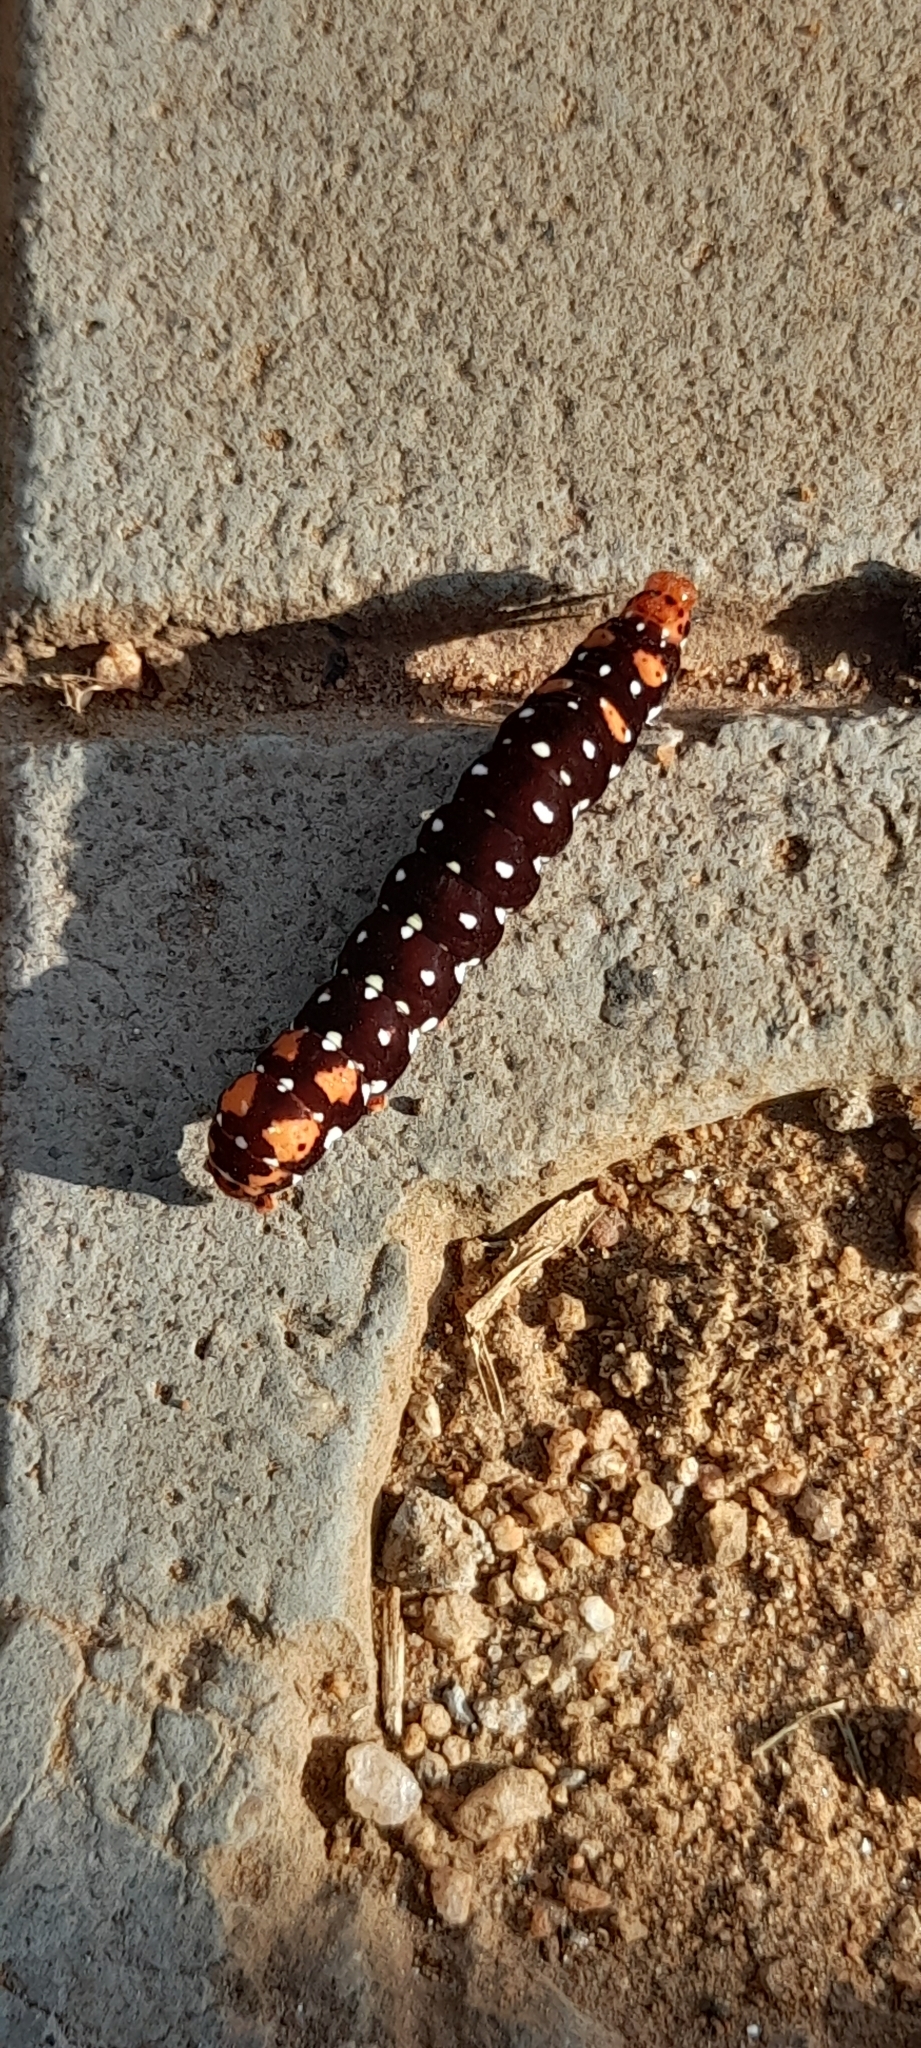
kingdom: Animalia
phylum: Arthropoda
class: Insecta
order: Lepidoptera
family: Noctuidae
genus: Polytela
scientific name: Polytela gloriosae
